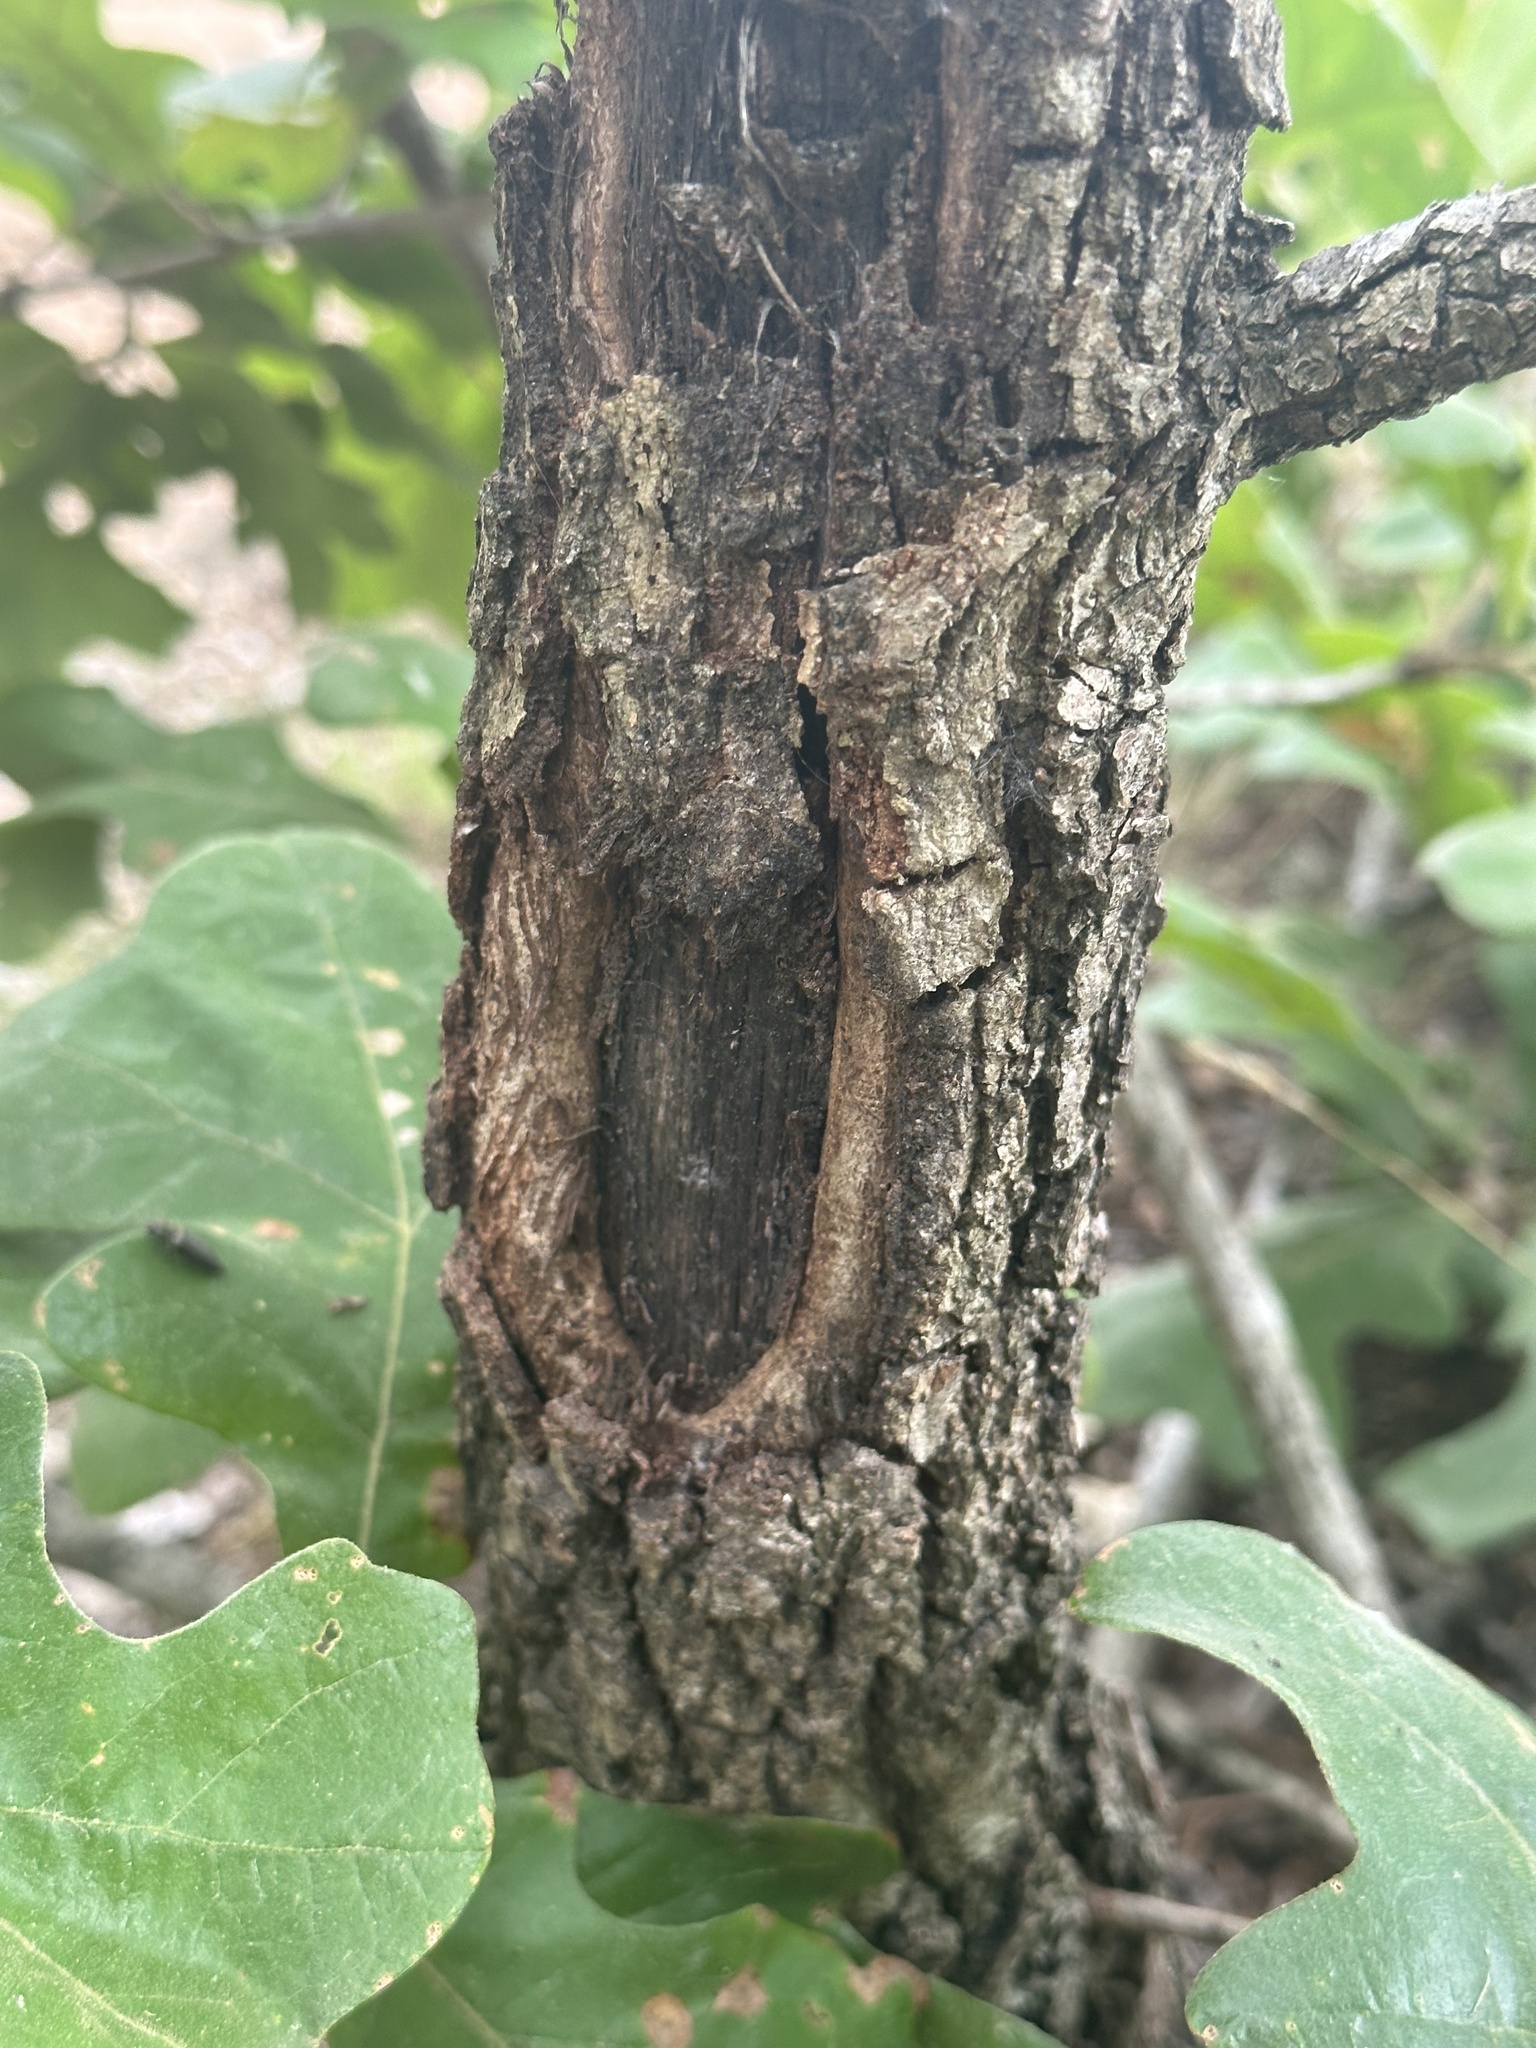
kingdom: Plantae
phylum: Tracheophyta
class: Magnoliopsida
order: Fagales
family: Fagaceae
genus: Quercus
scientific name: Quercus stellata
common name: Post oak
